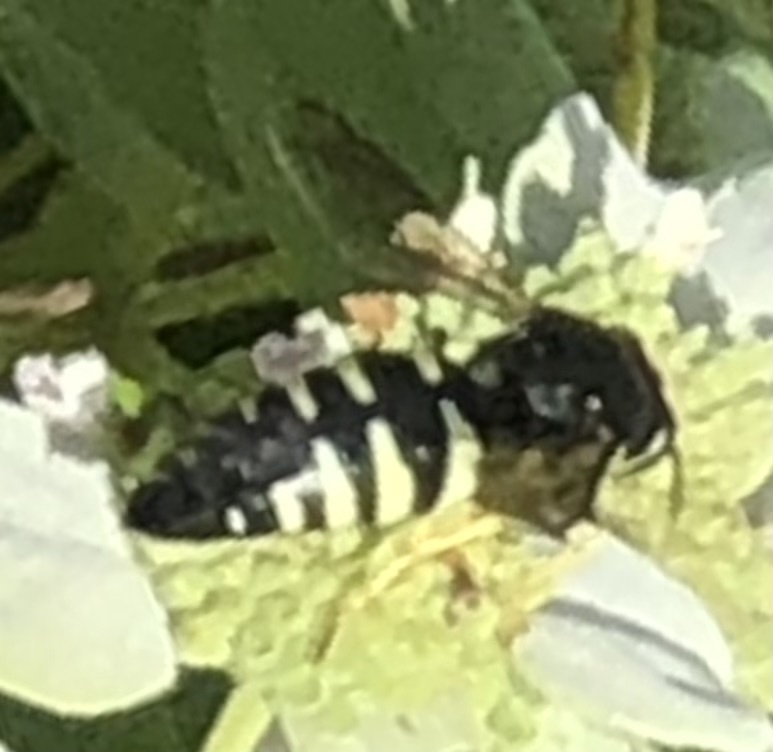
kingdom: Animalia
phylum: Arthropoda
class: Insecta
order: Hymenoptera
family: Crabronidae
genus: Bicyrtes
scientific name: Bicyrtes quadrifasciatus
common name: Four-banded stink bug hunter wasp
